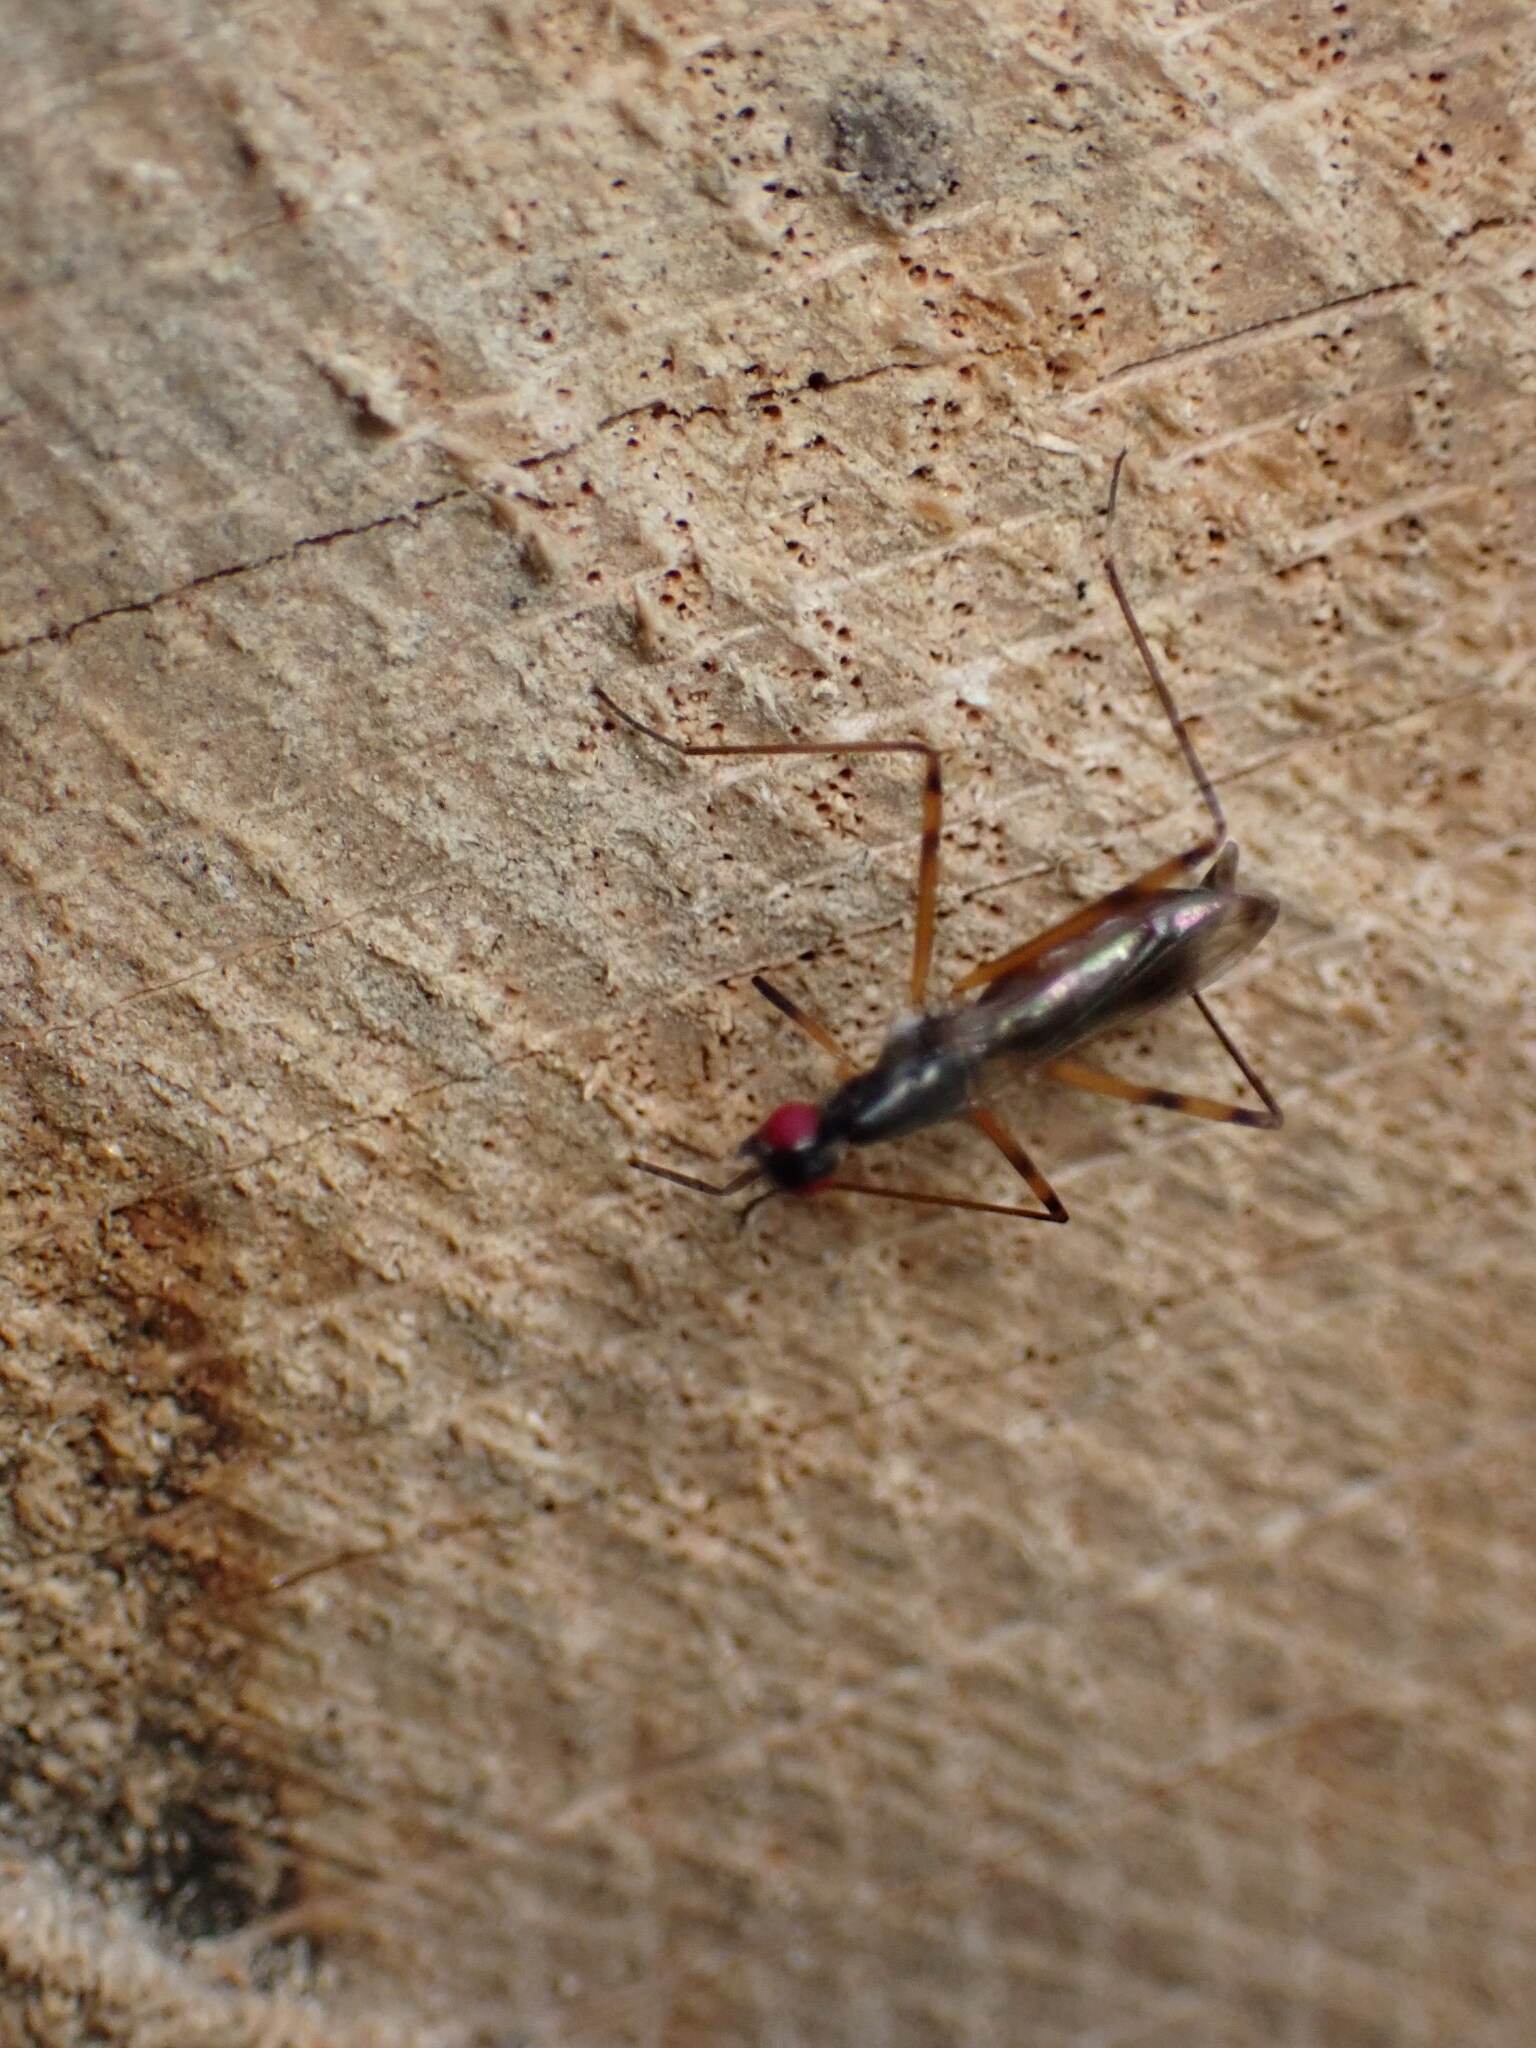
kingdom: Animalia
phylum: Arthropoda
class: Insecta
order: Diptera
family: Micropezidae
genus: Rainieria
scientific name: Rainieria antennaepes
